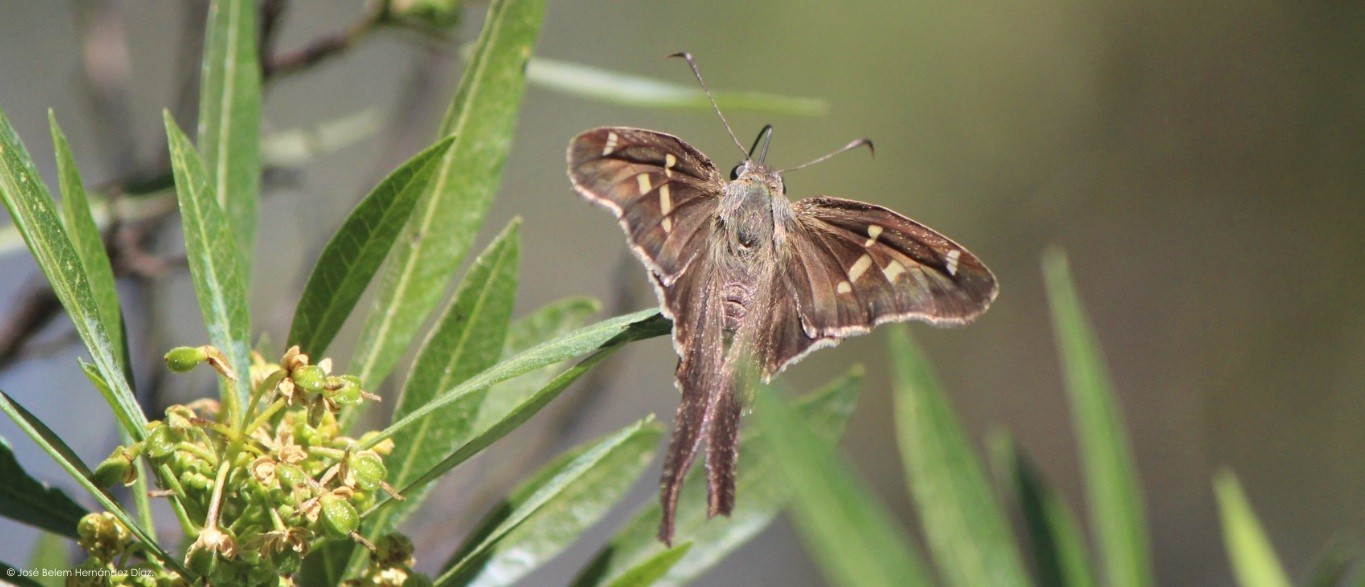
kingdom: Animalia
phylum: Arthropoda
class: Insecta
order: Lepidoptera
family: Hesperiidae
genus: Chioides
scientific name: Chioides catillus
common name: Silverbanded skipper
